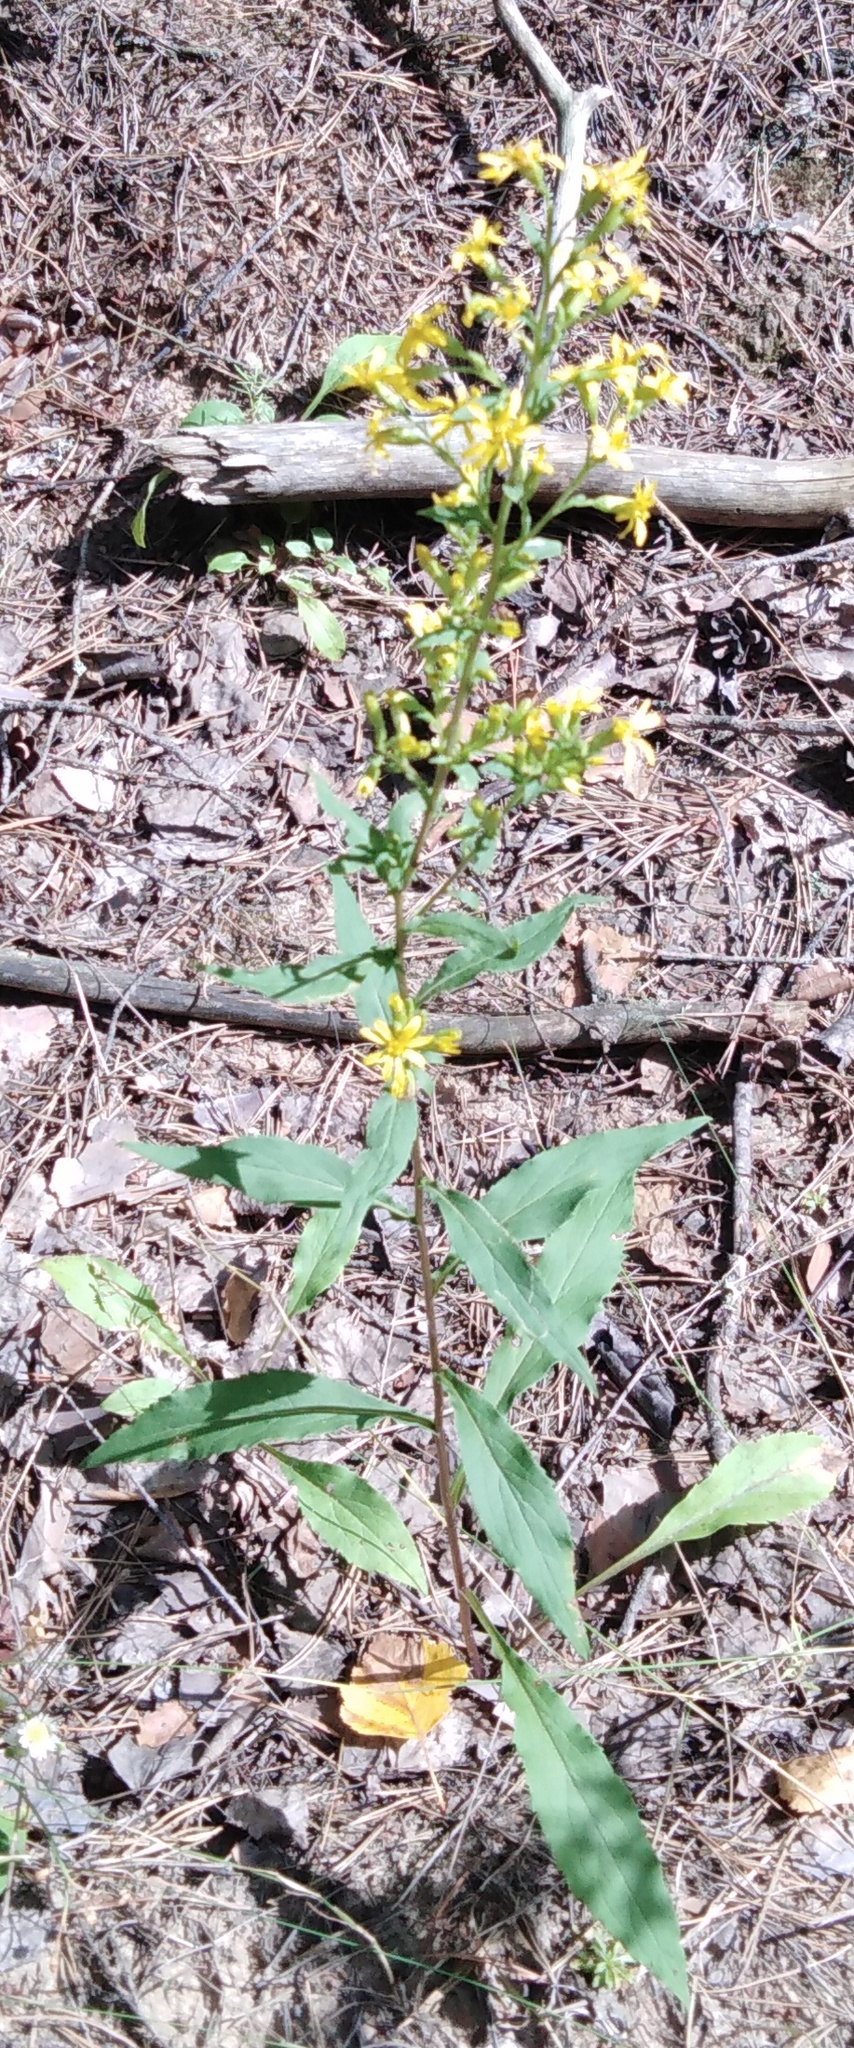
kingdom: Plantae
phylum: Tracheophyta
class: Magnoliopsida
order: Asterales
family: Asteraceae
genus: Solidago
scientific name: Solidago virgaurea
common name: Goldenrod
